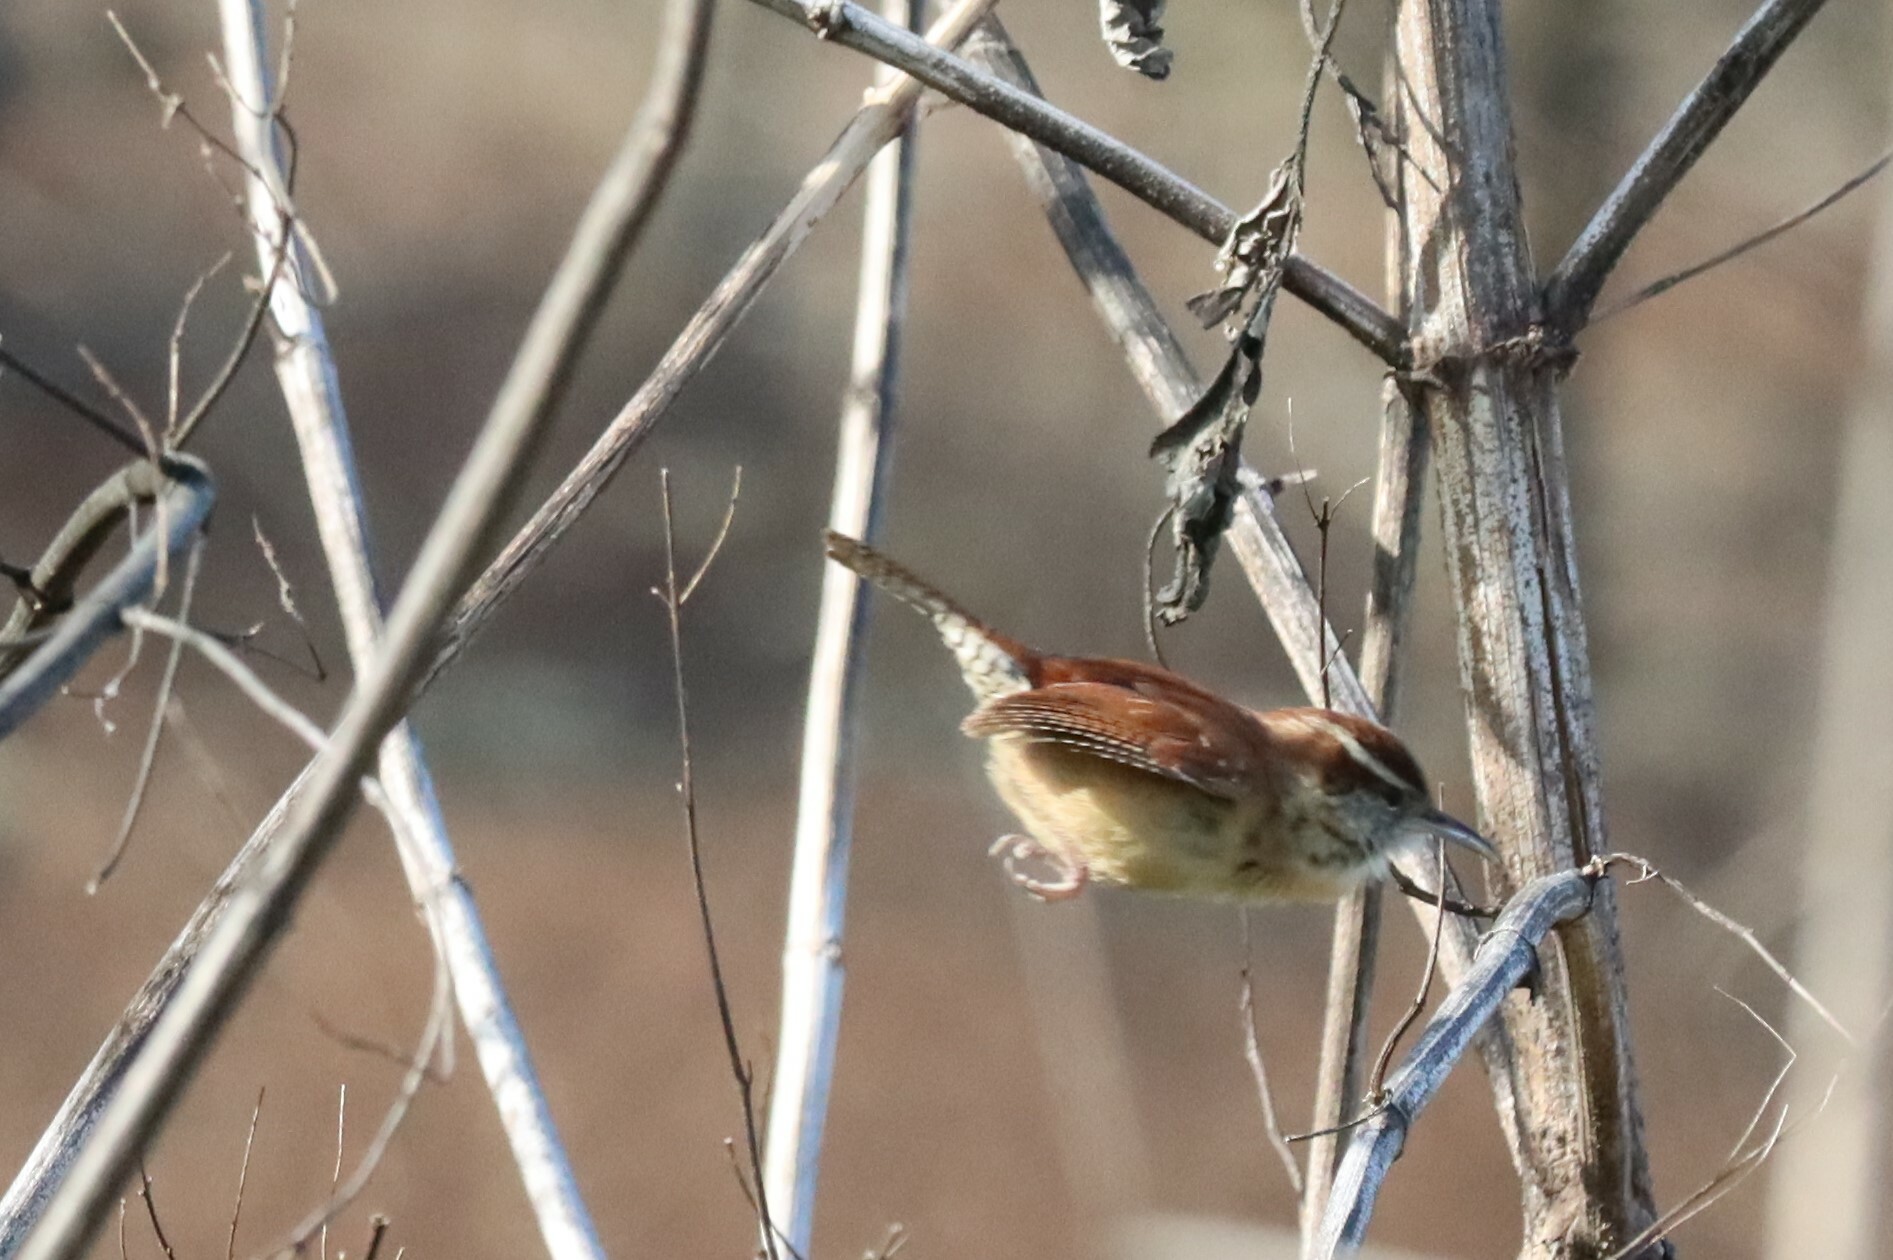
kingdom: Animalia
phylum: Chordata
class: Aves
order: Passeriformes
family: Troglodytidae
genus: Thryothorus
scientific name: Thryothorus ludovicianus
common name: Carolina wren
